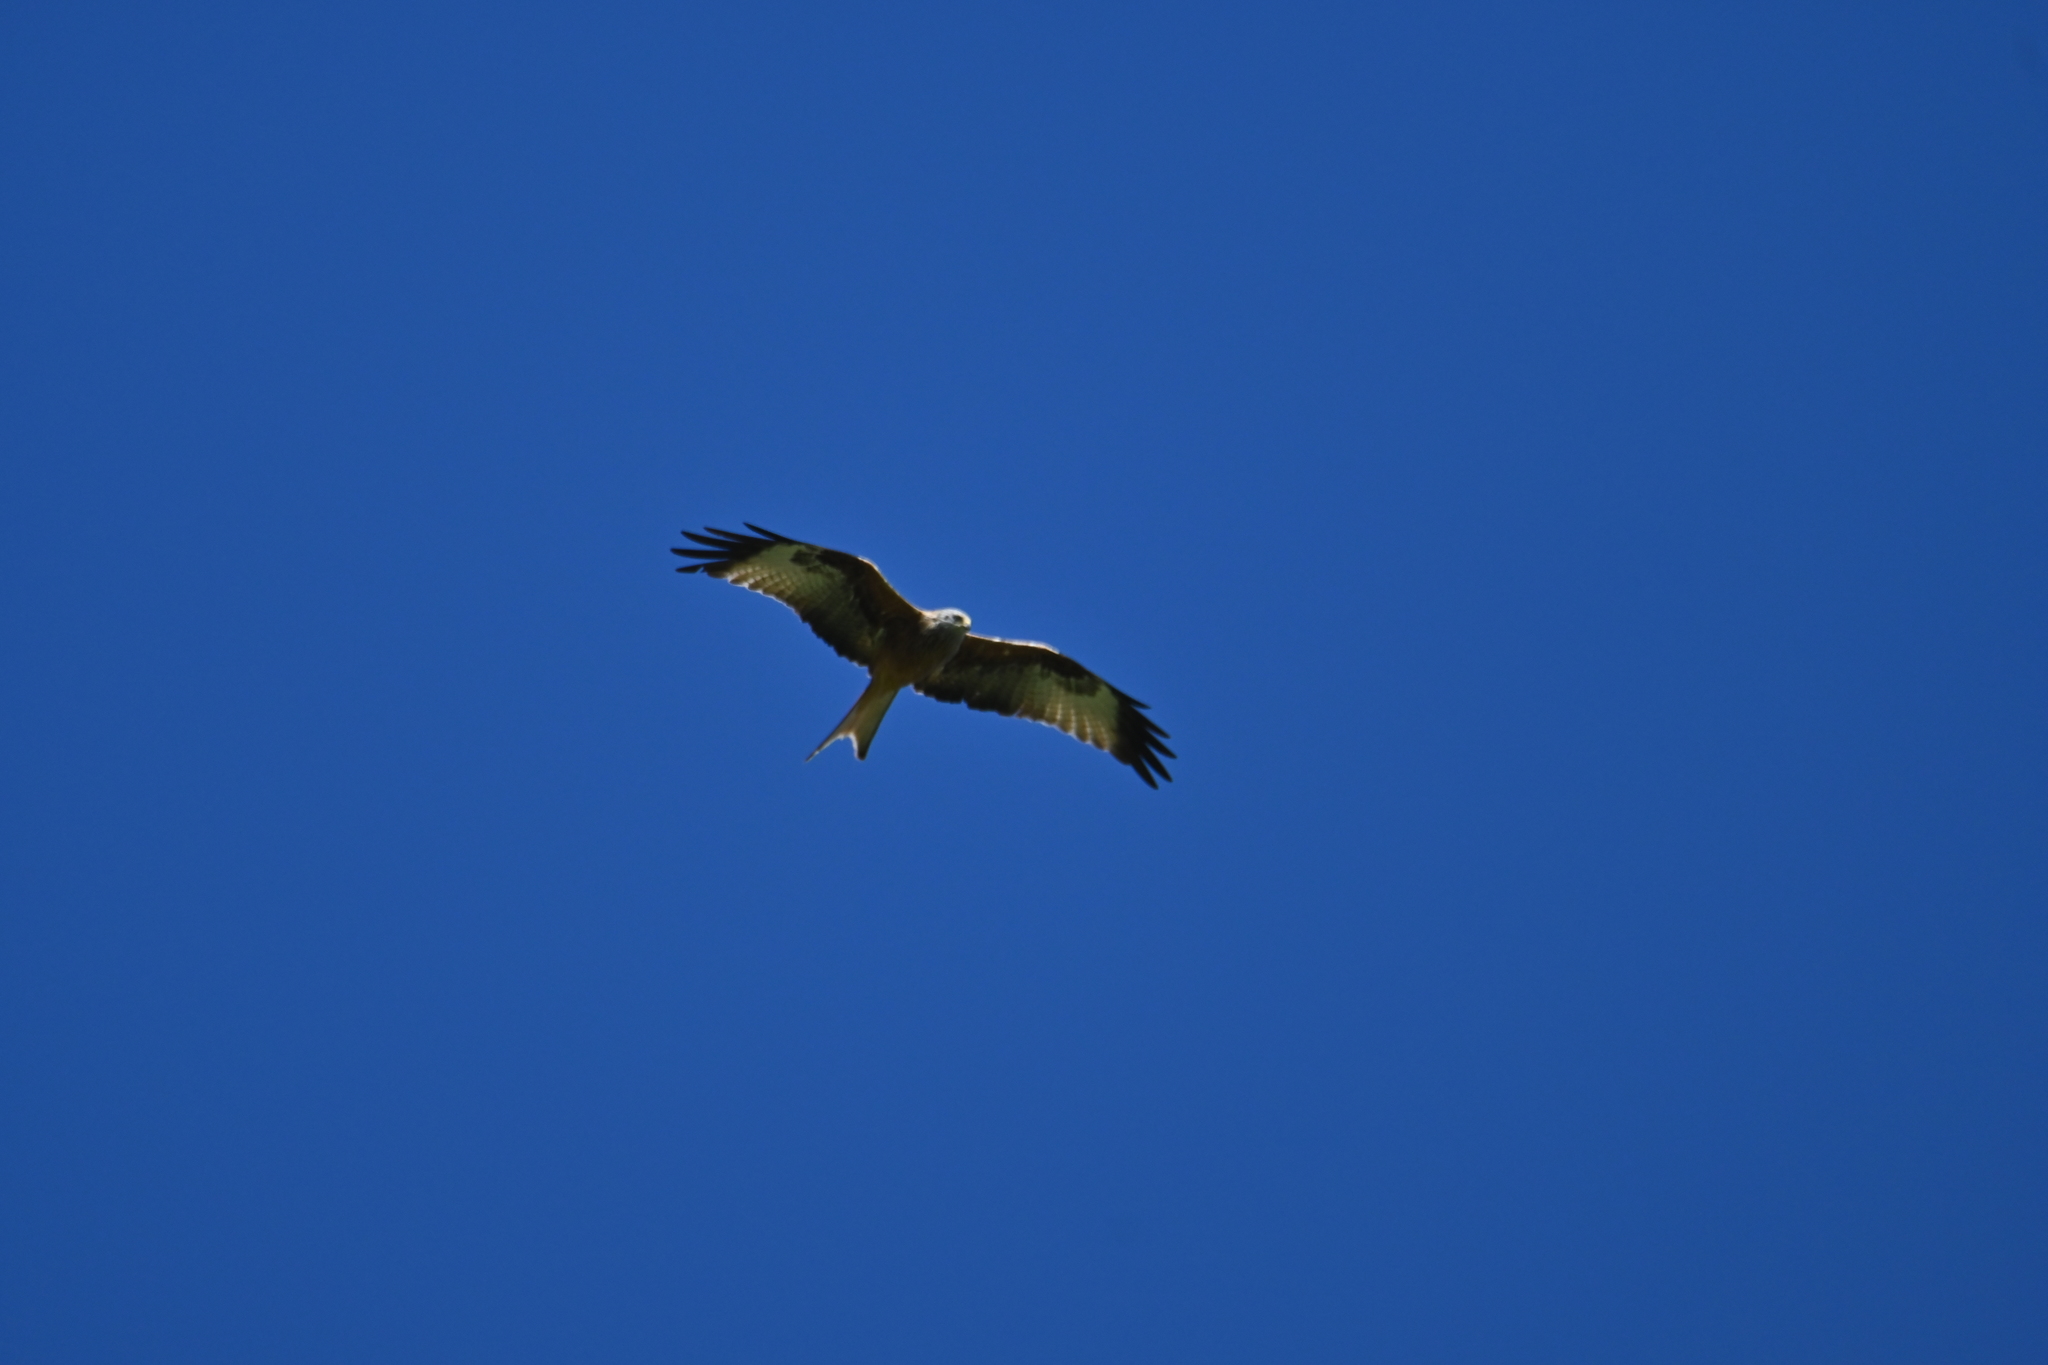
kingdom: Animalia
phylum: Chordata
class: Aves
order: Accipitriformes
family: Accipitridae
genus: Milvus
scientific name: Milvus milvus
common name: Red kite
